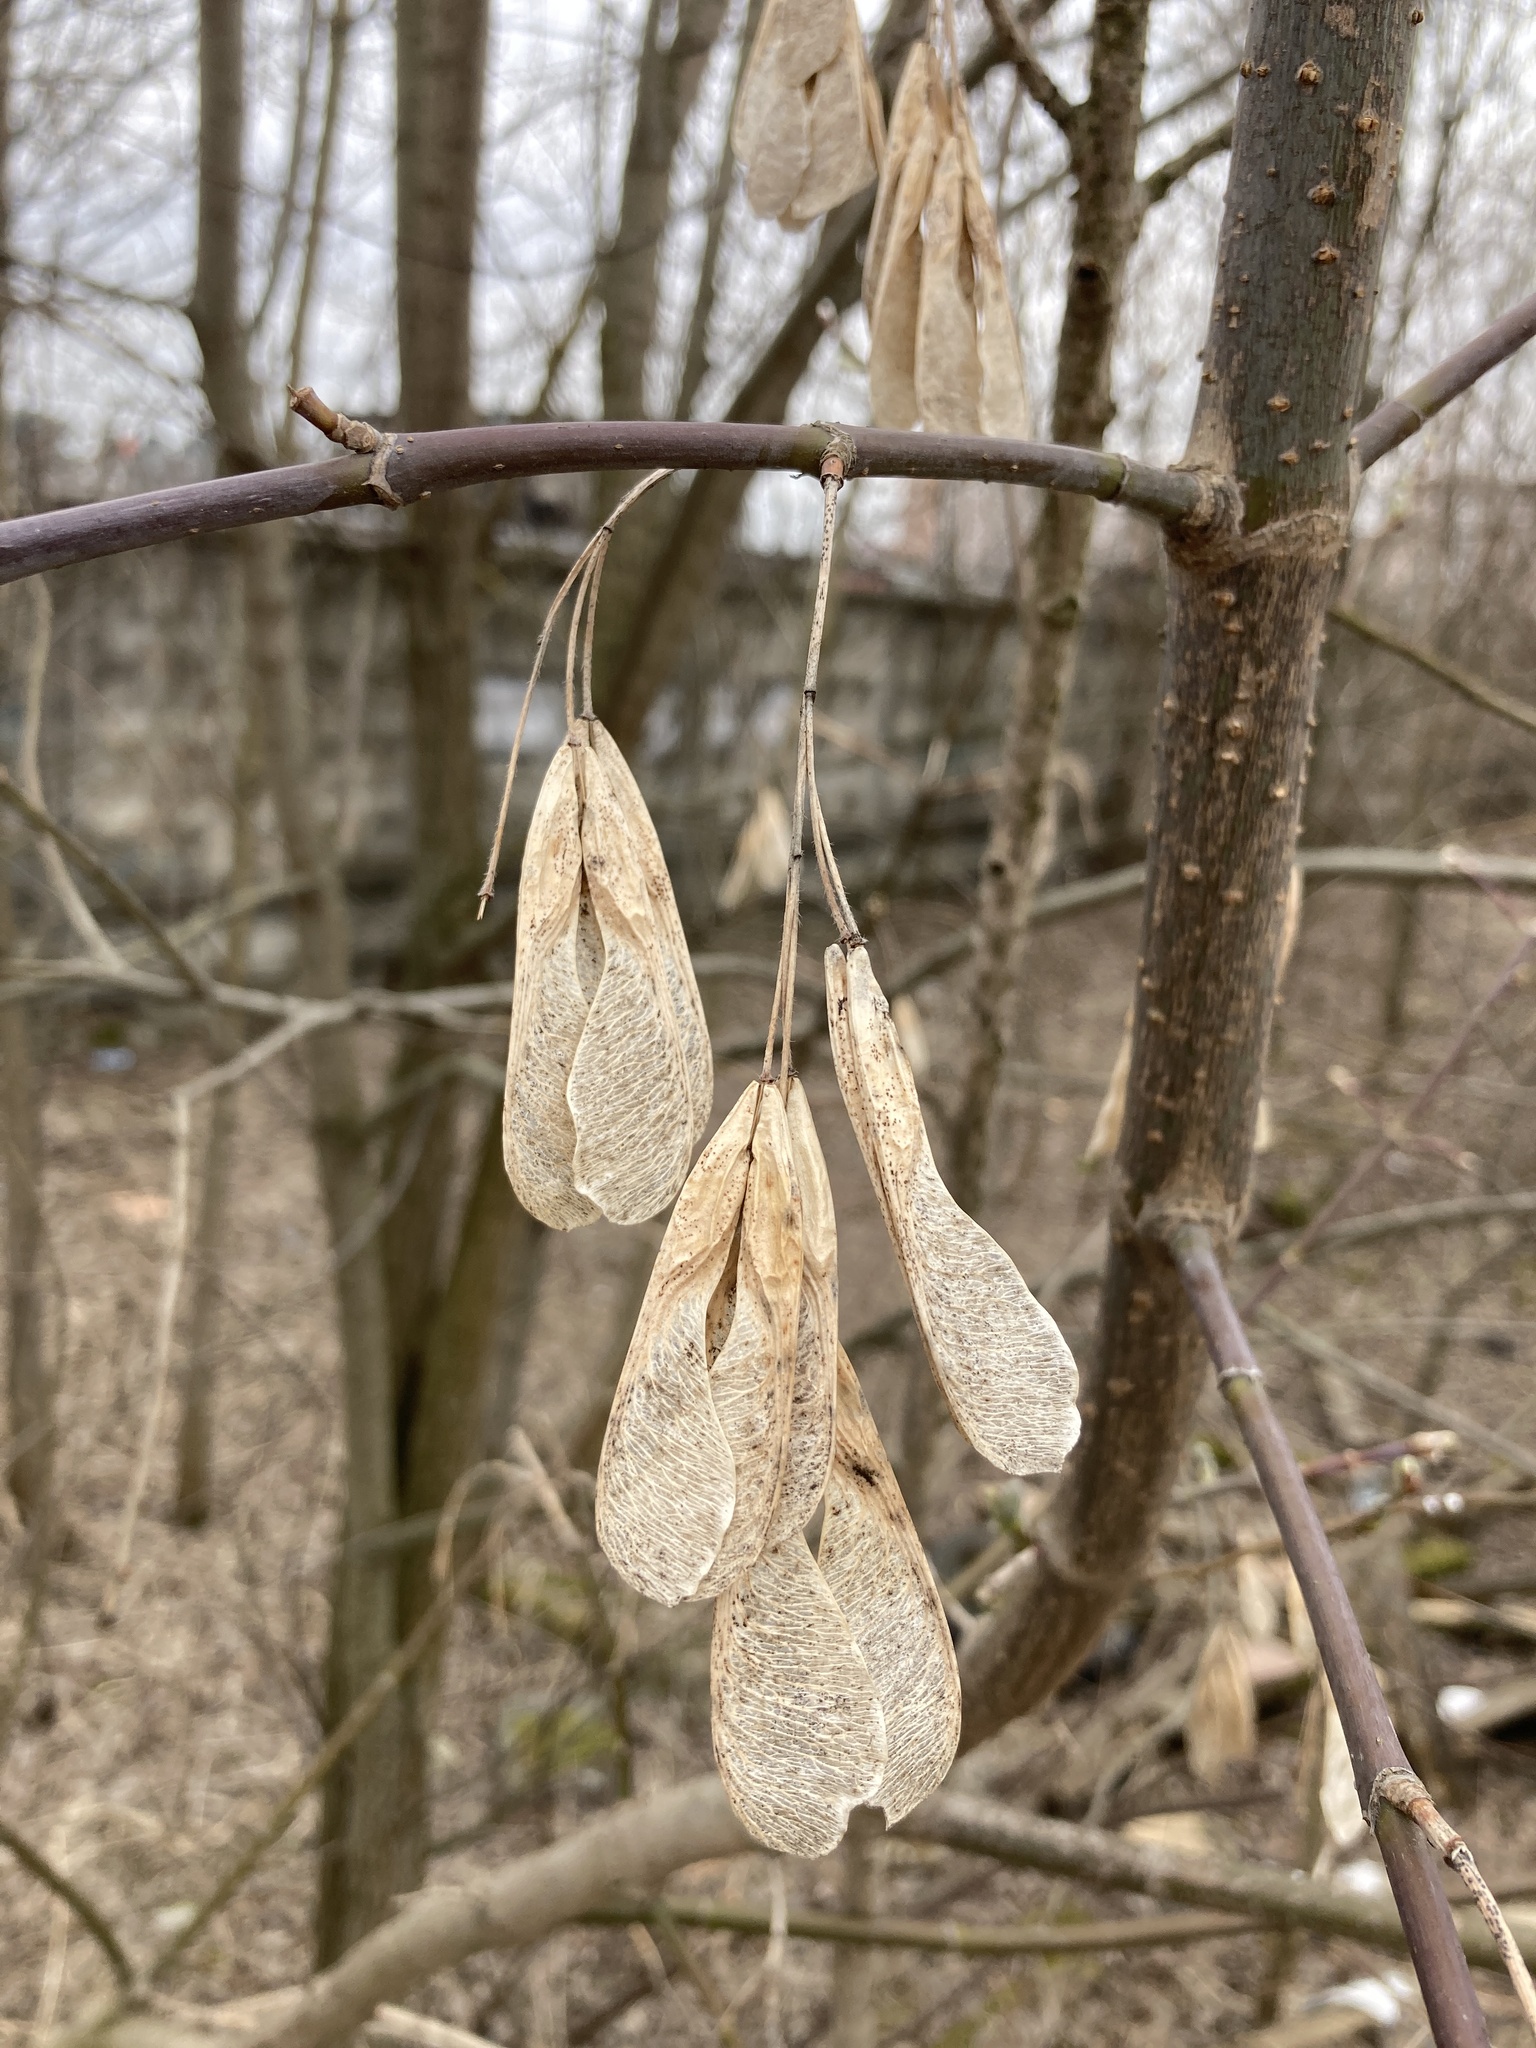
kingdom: Plantae
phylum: Tracheophyta
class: Magnoliopsida
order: Sapindales
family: Sapindaceae
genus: Acer
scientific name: Acer negundo
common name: Ashleaf maple
